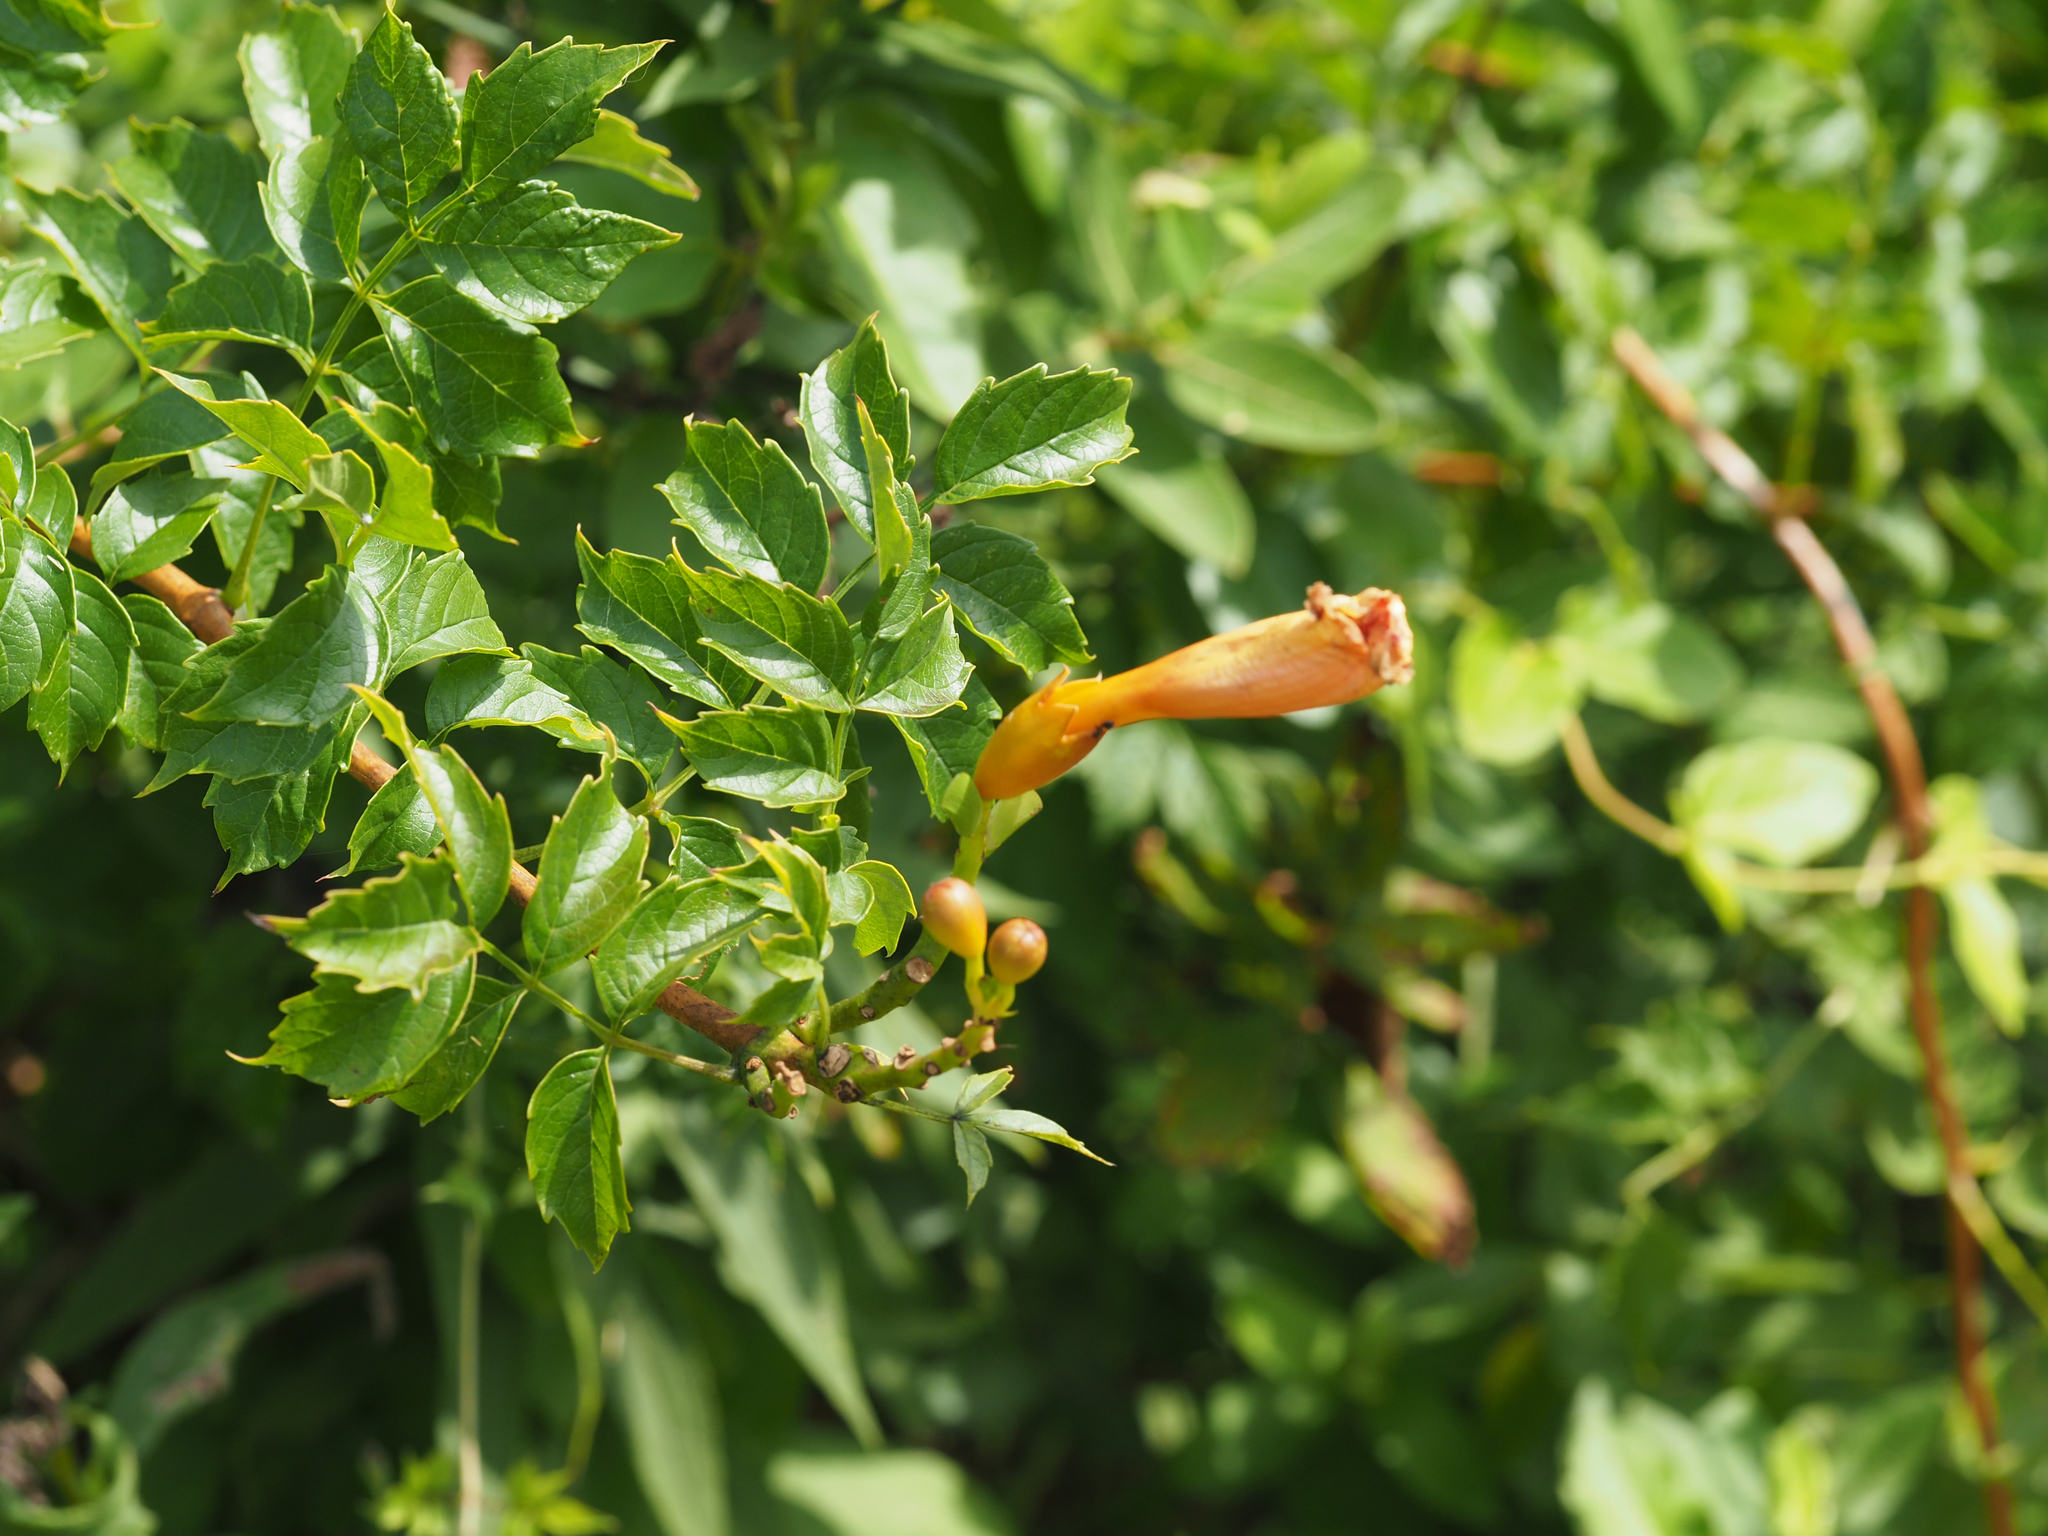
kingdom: Plantae
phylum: Tracheophyta
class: Magnoliopsida
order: Lamiales
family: Bignoniaceae
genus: Campsis
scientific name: Campsis radicans
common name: Trumpet-creeper
